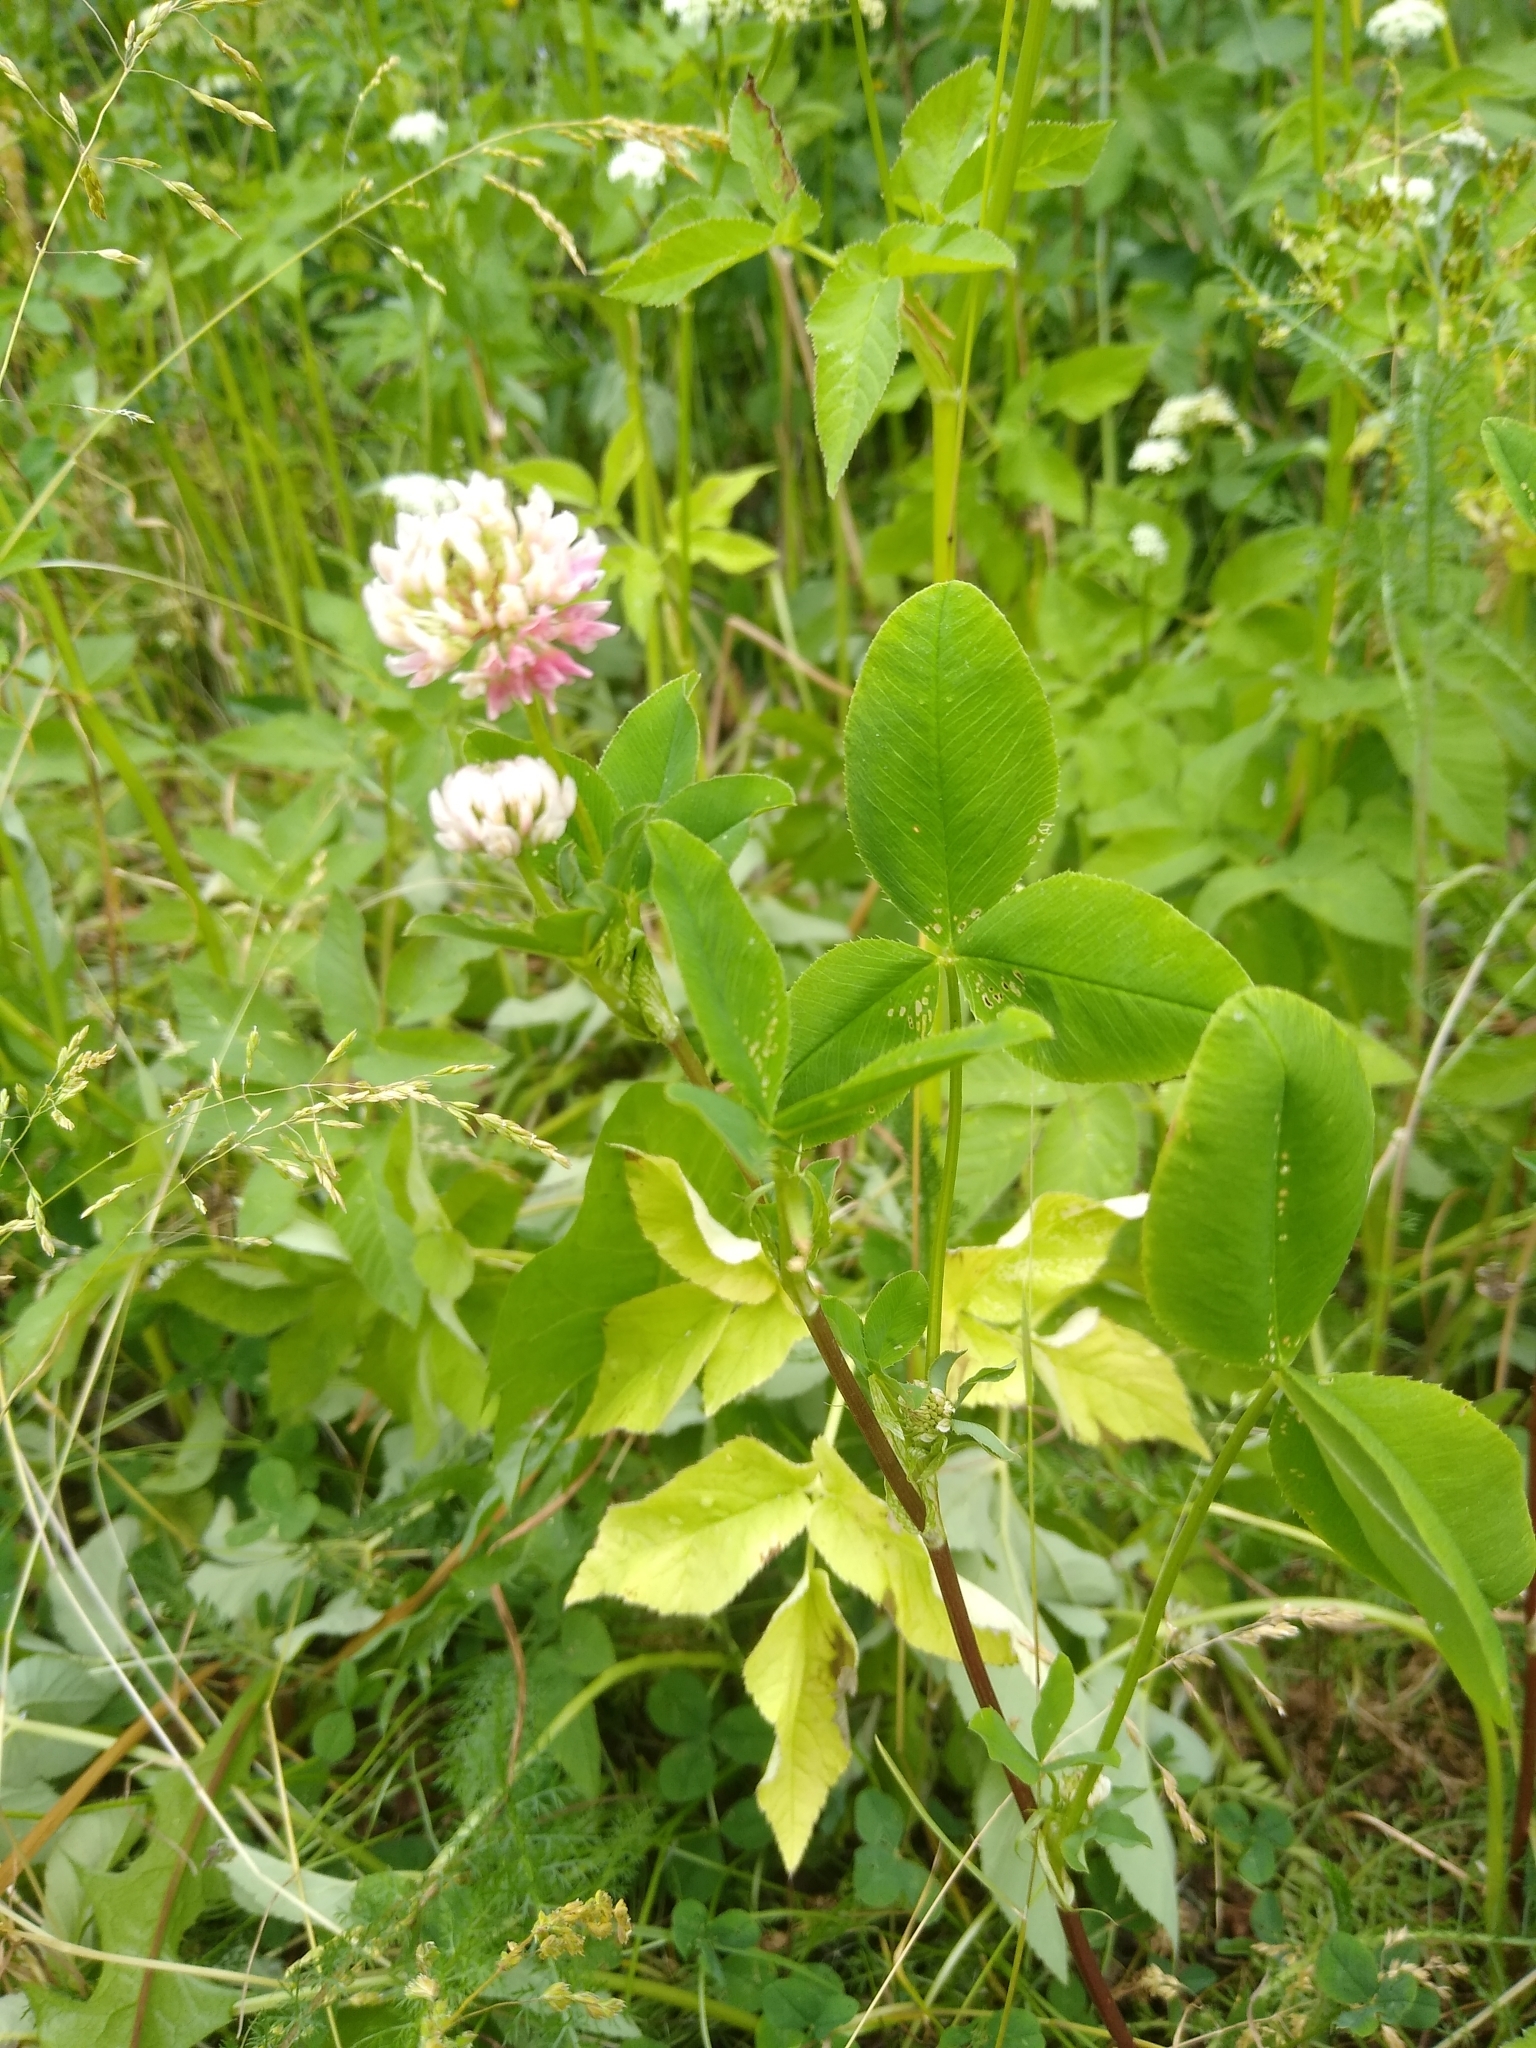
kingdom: Plantae
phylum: Tracheophyta
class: Magnoliopsida
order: Fabales
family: Fabaceae
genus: Trifolium
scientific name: Trifolium hybridum
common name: Alsike clover
